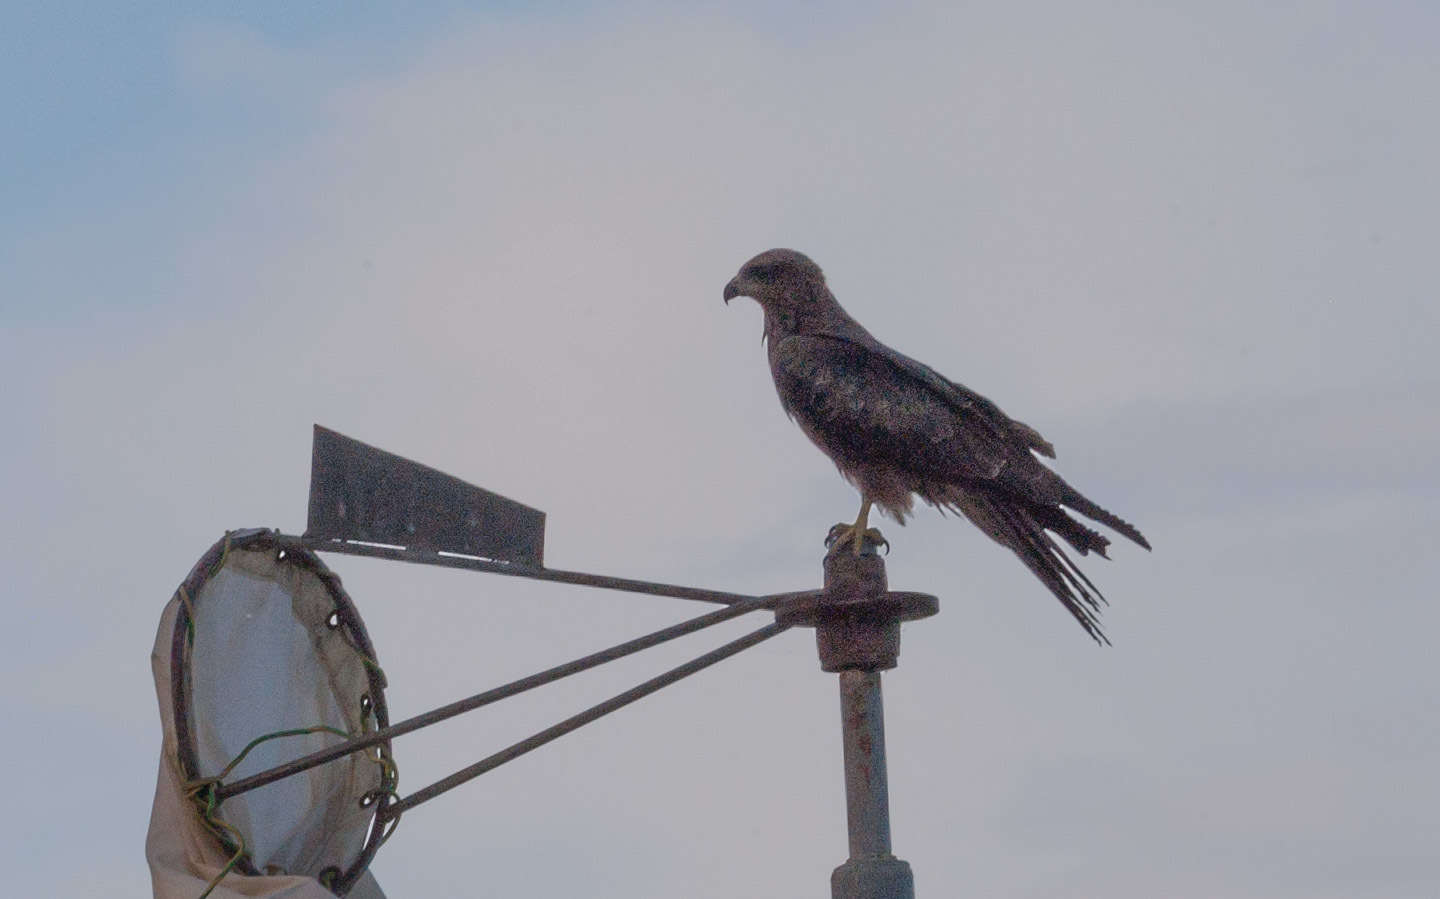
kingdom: Animalia
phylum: Chordata
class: Aves
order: Accipitriformes
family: Accipitridae
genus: Milvus
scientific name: Milvus migrans
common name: Black kite
